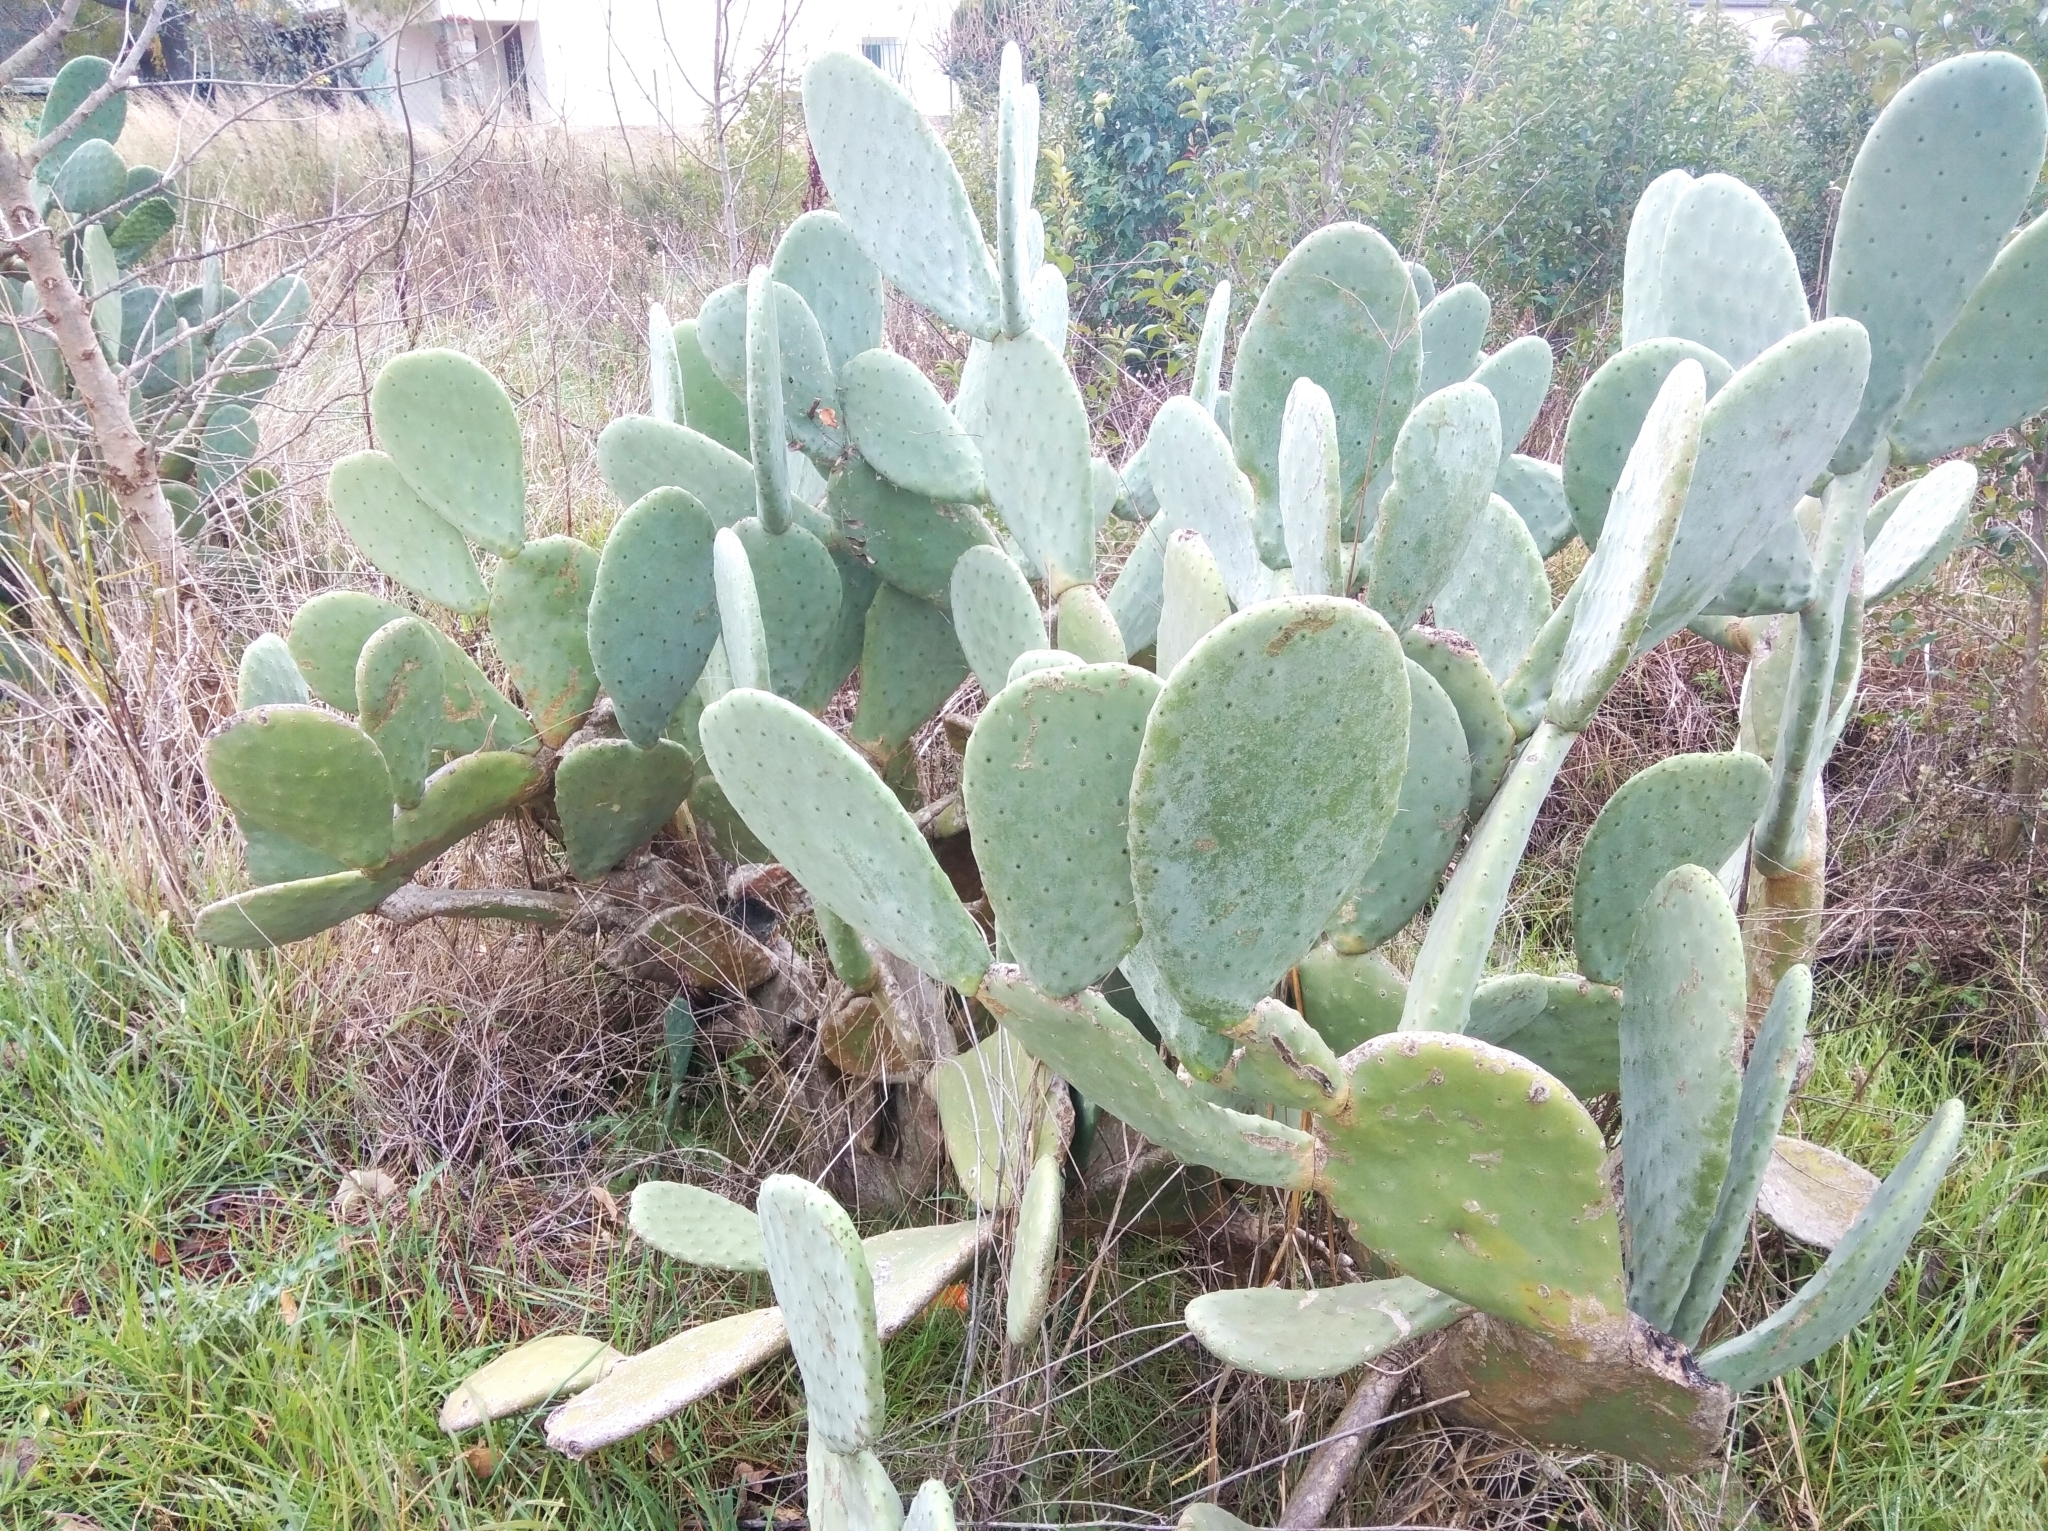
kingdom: Plantae
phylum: Tracheophyta
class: Magnoliopsida
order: Caryophyllales
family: Cactaceae
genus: Opuntia
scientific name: Opuntia ficus-indica
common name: Barbary fig
